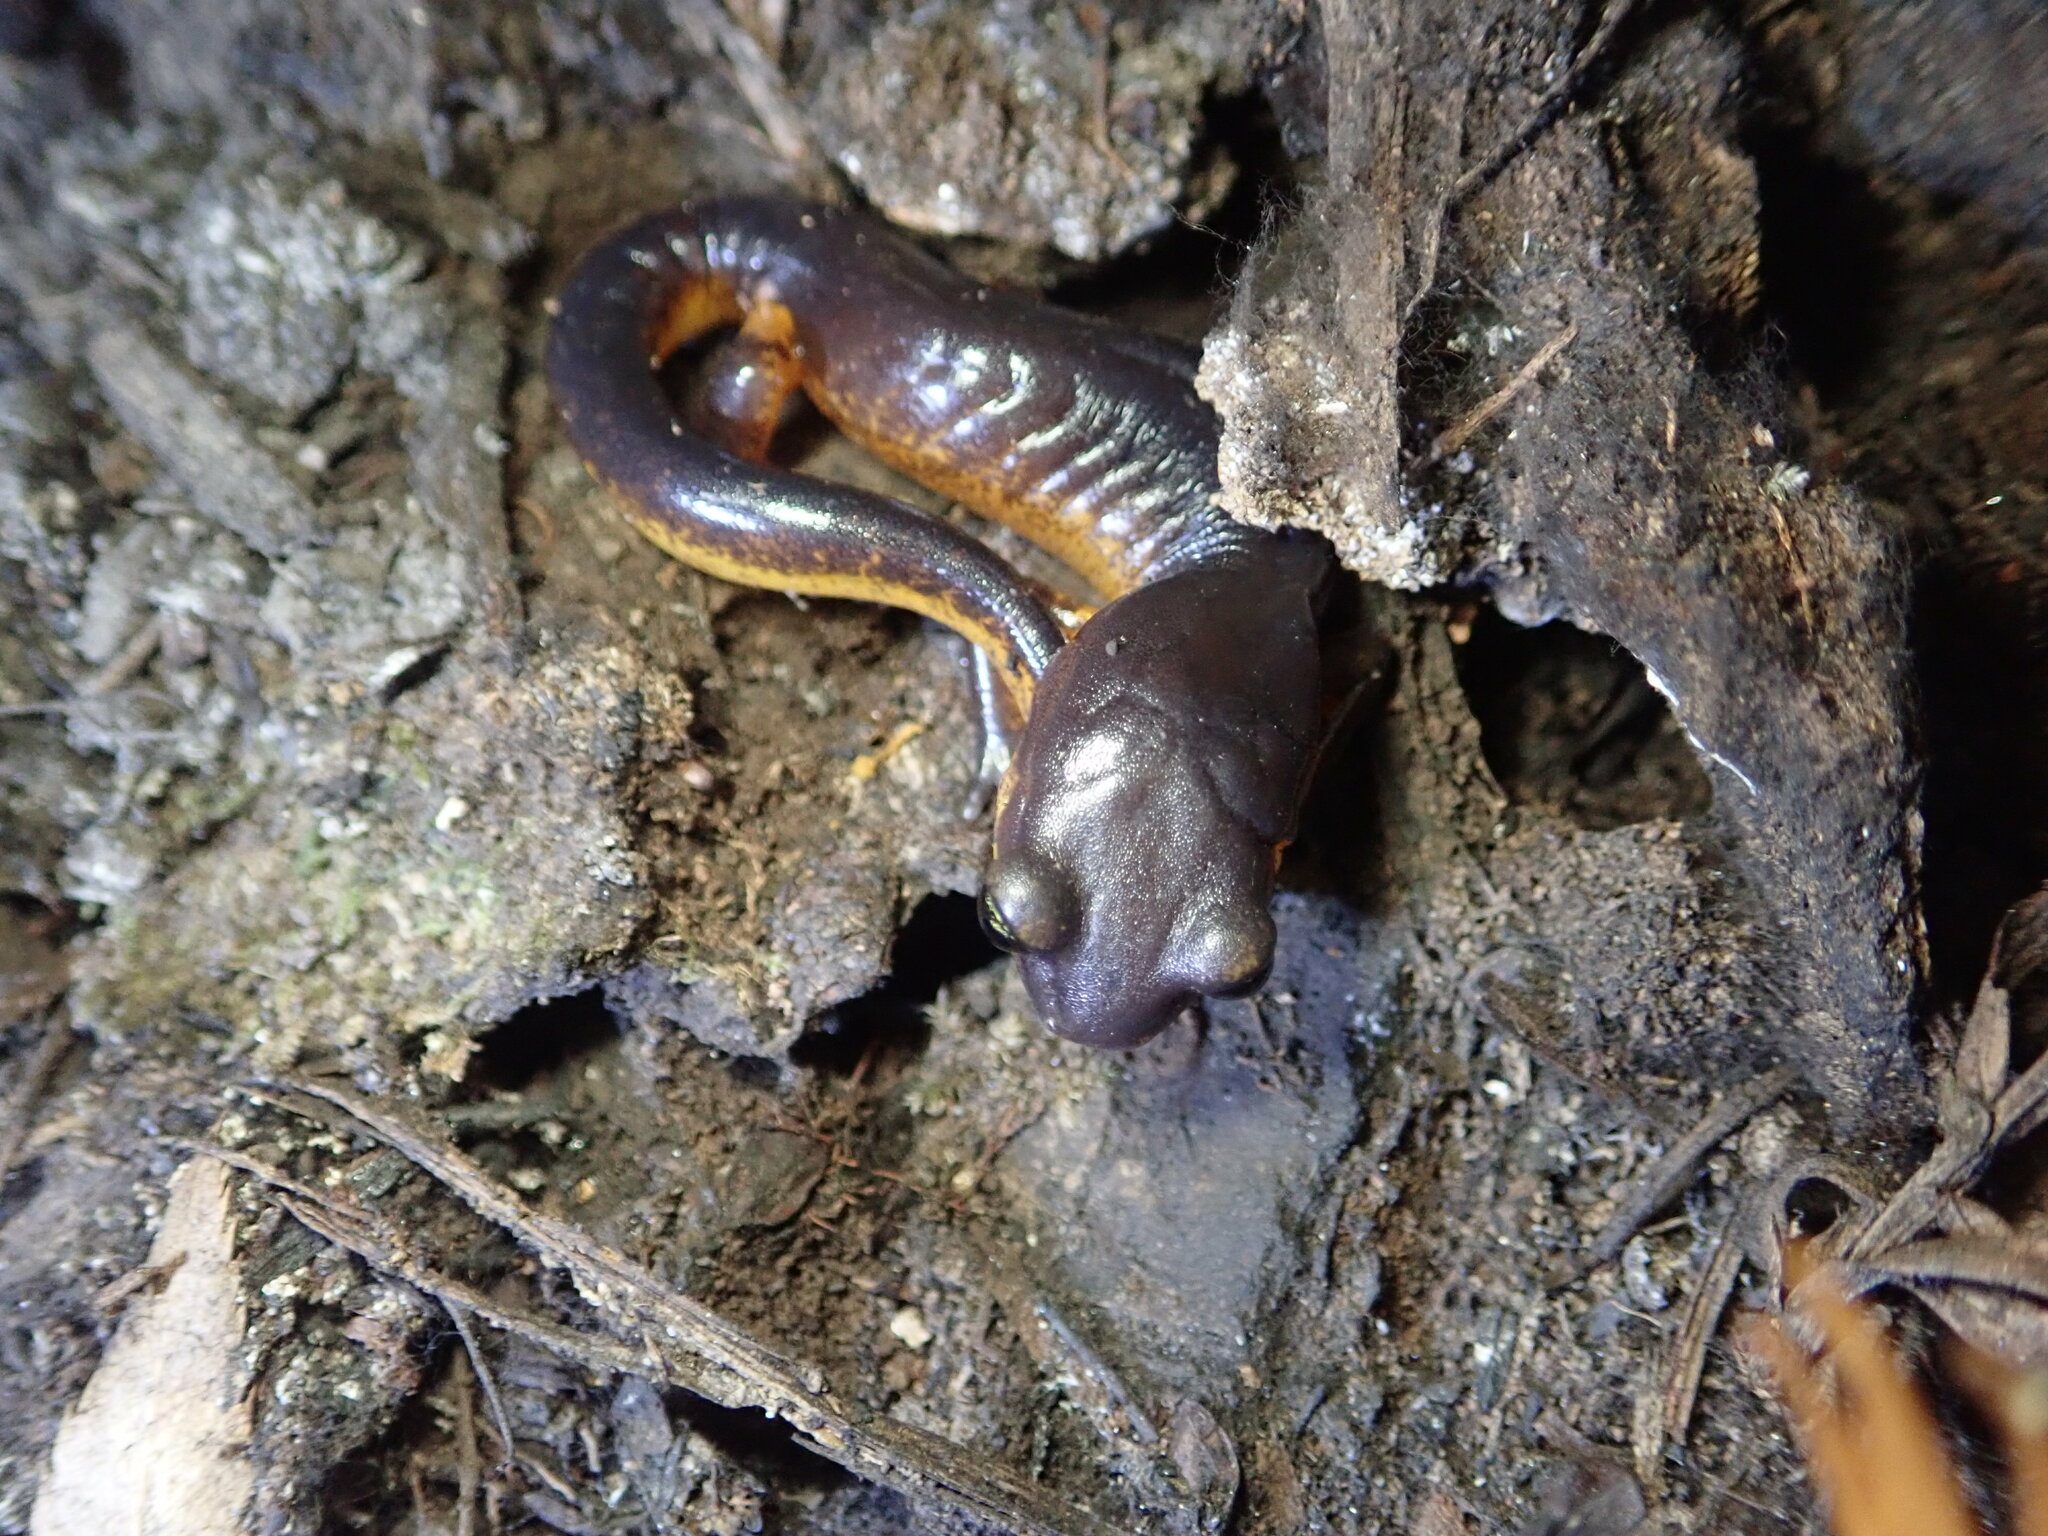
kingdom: Animalia
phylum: Chordata
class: Amphibia
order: Caudata
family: Plethodontidae
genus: Ensatina
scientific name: Ensatina eschscholtzii
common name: Ensatina
